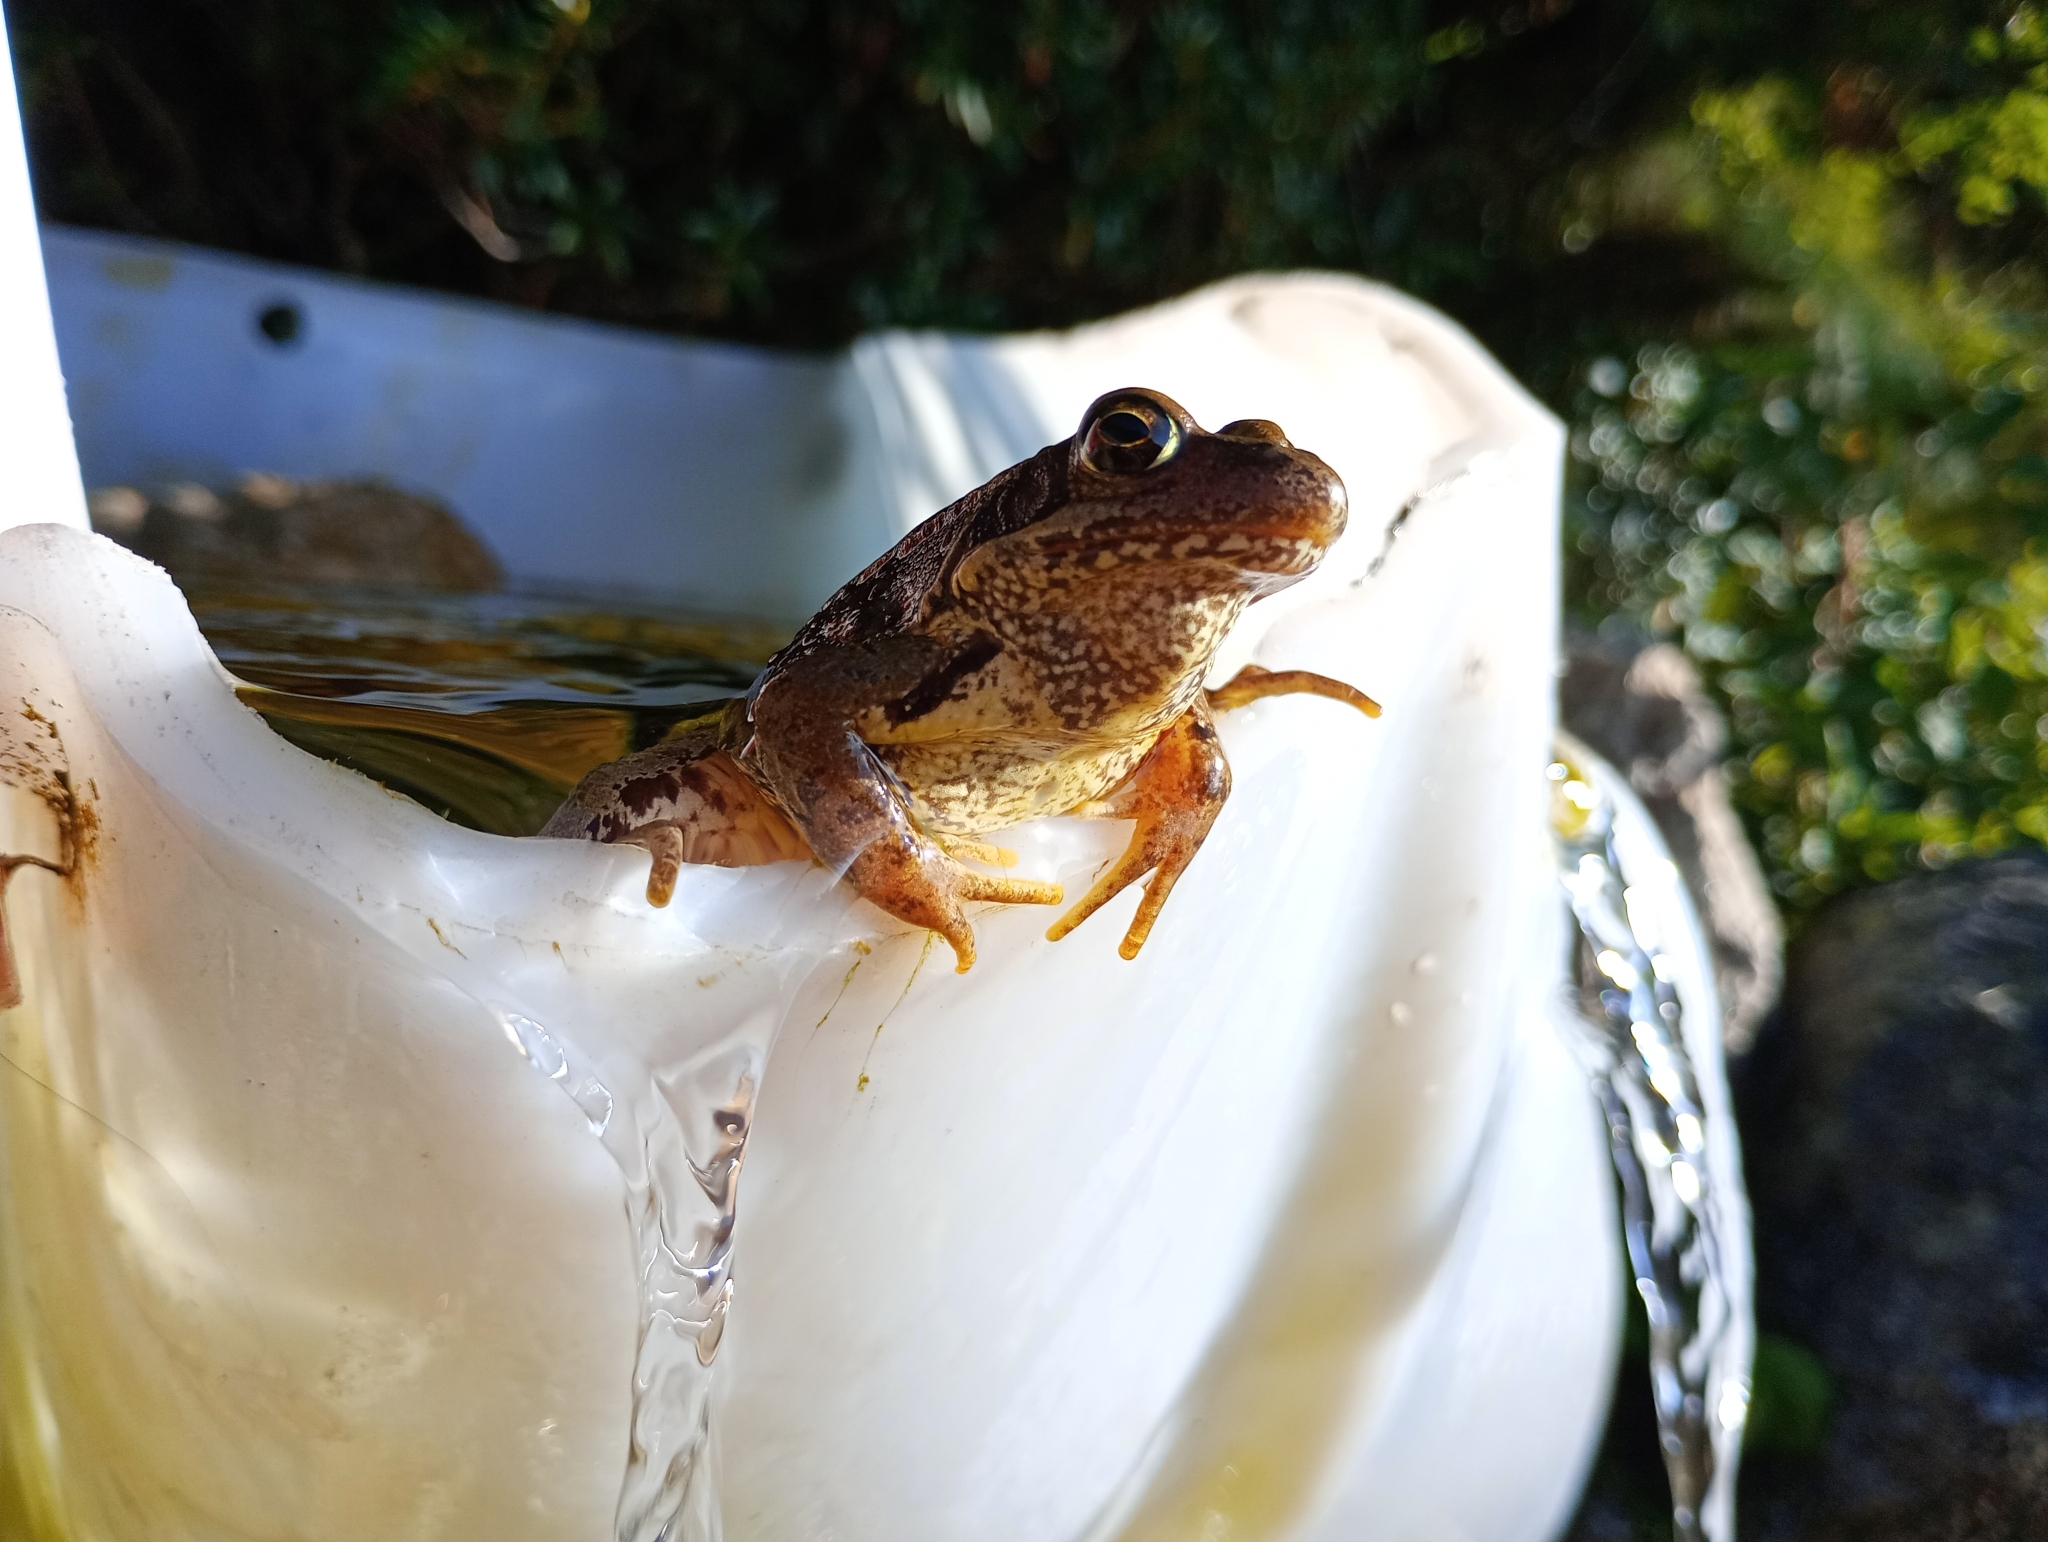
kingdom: Animalia
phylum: Chordata
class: Amphibia
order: Anura
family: Ranidae
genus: Rana
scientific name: Rana temporaria
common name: Common frog
